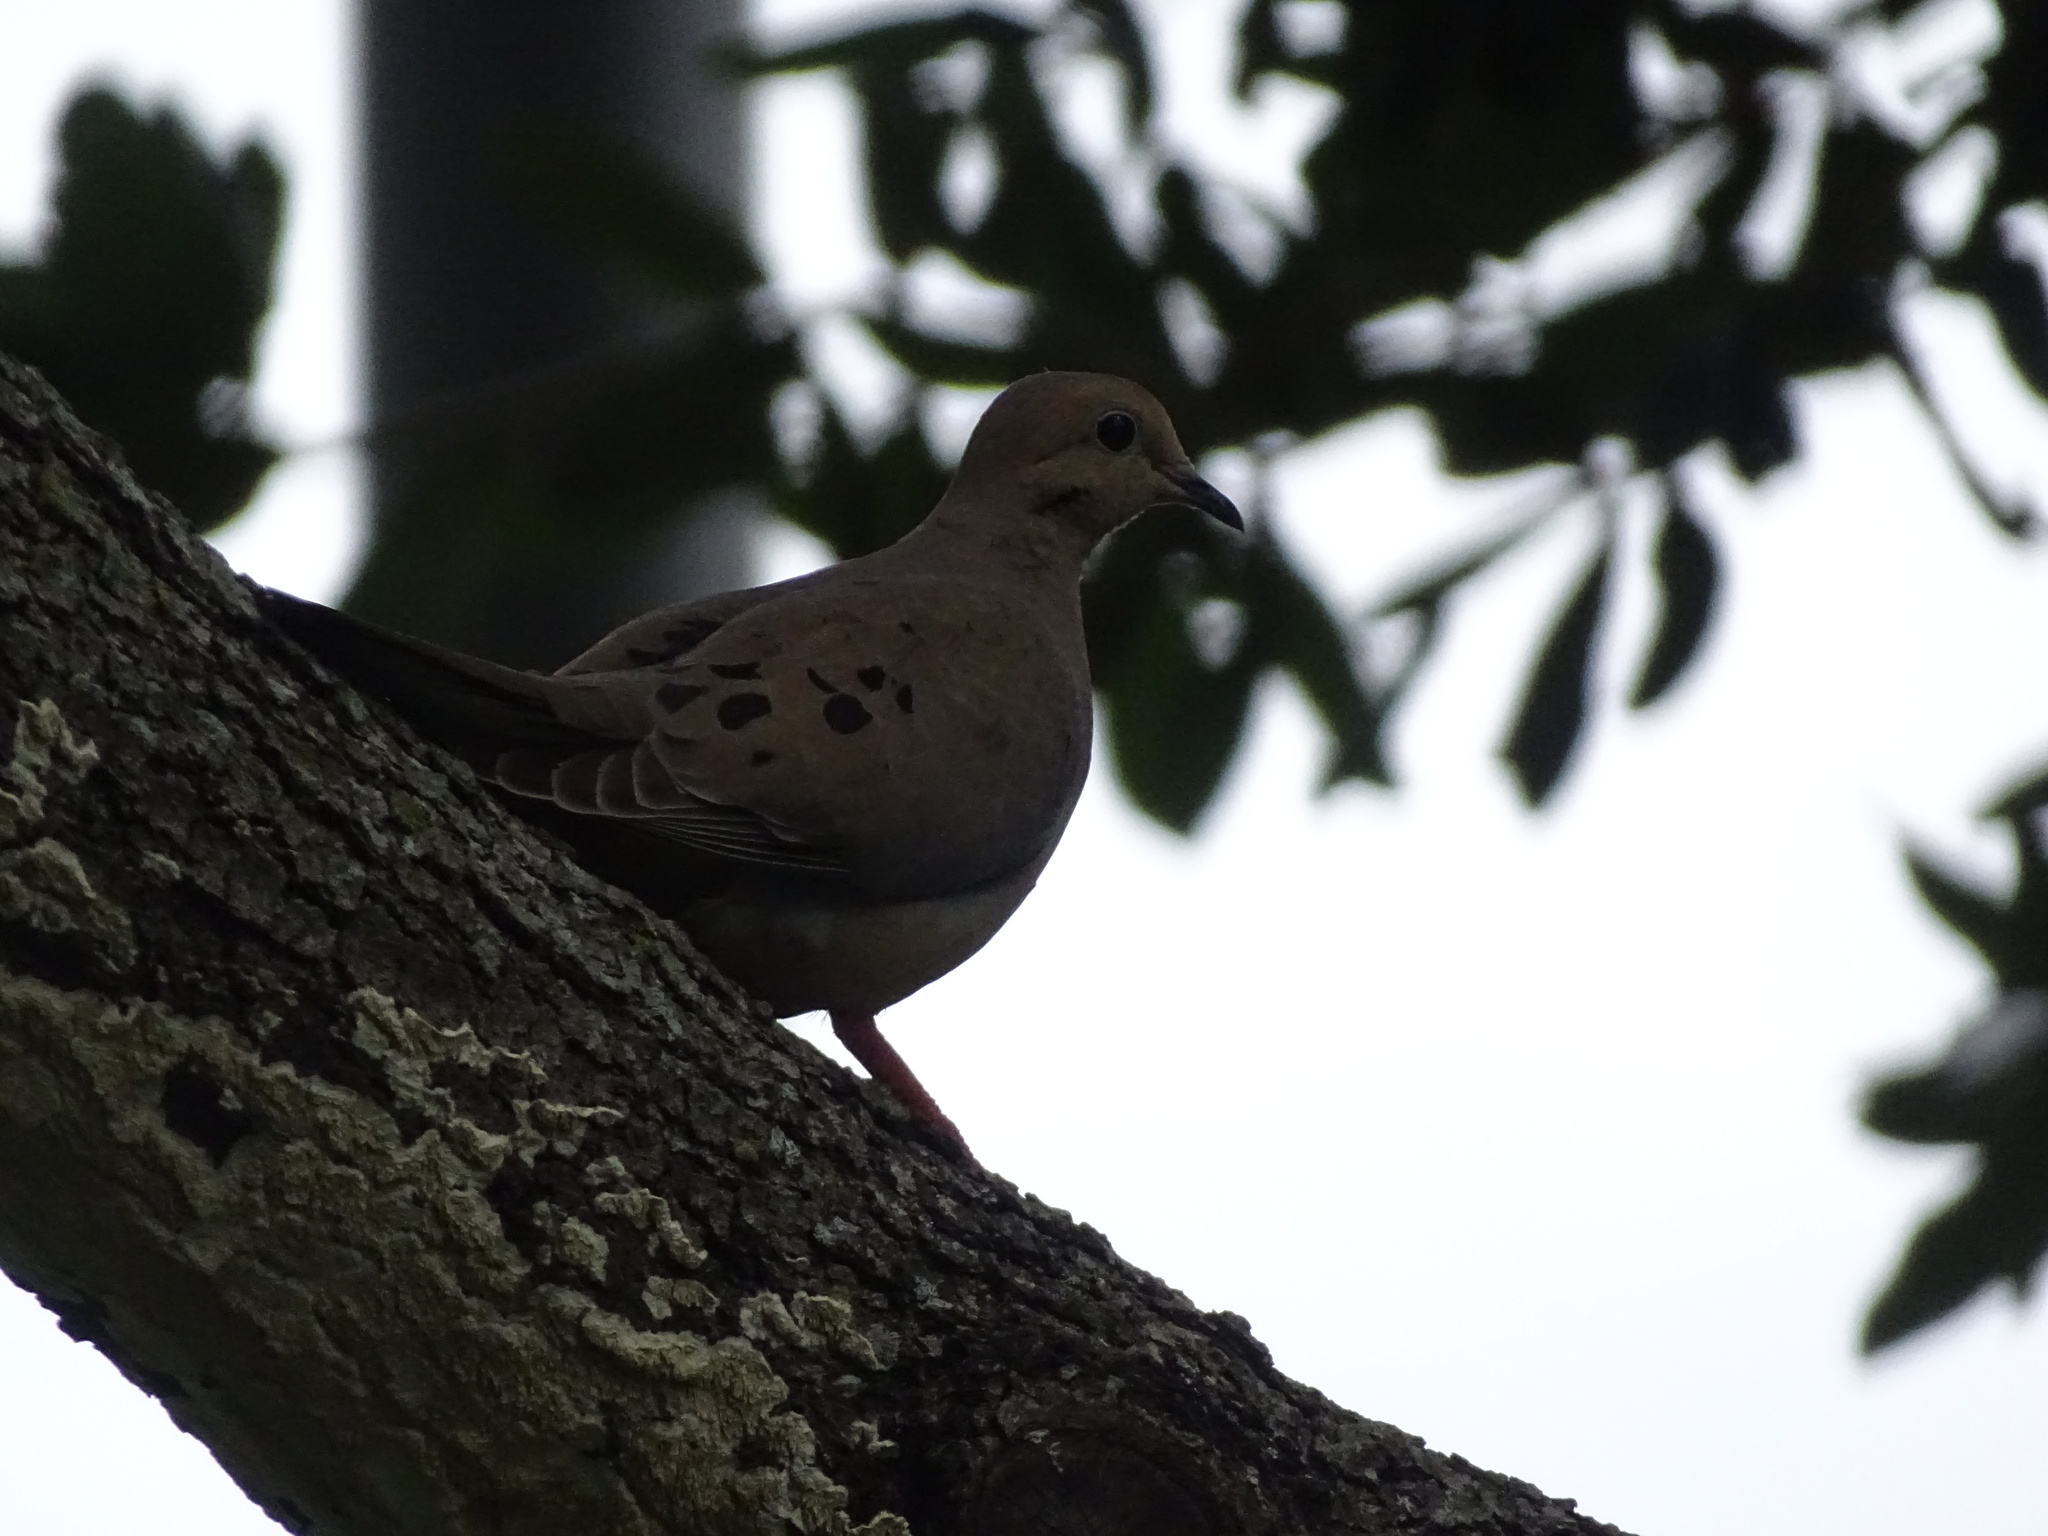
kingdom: Animalia
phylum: Chordata
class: Aves
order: Columbiformes
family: Columbidae
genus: Zenaida
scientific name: Zenaida macroura
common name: Mourning dove
